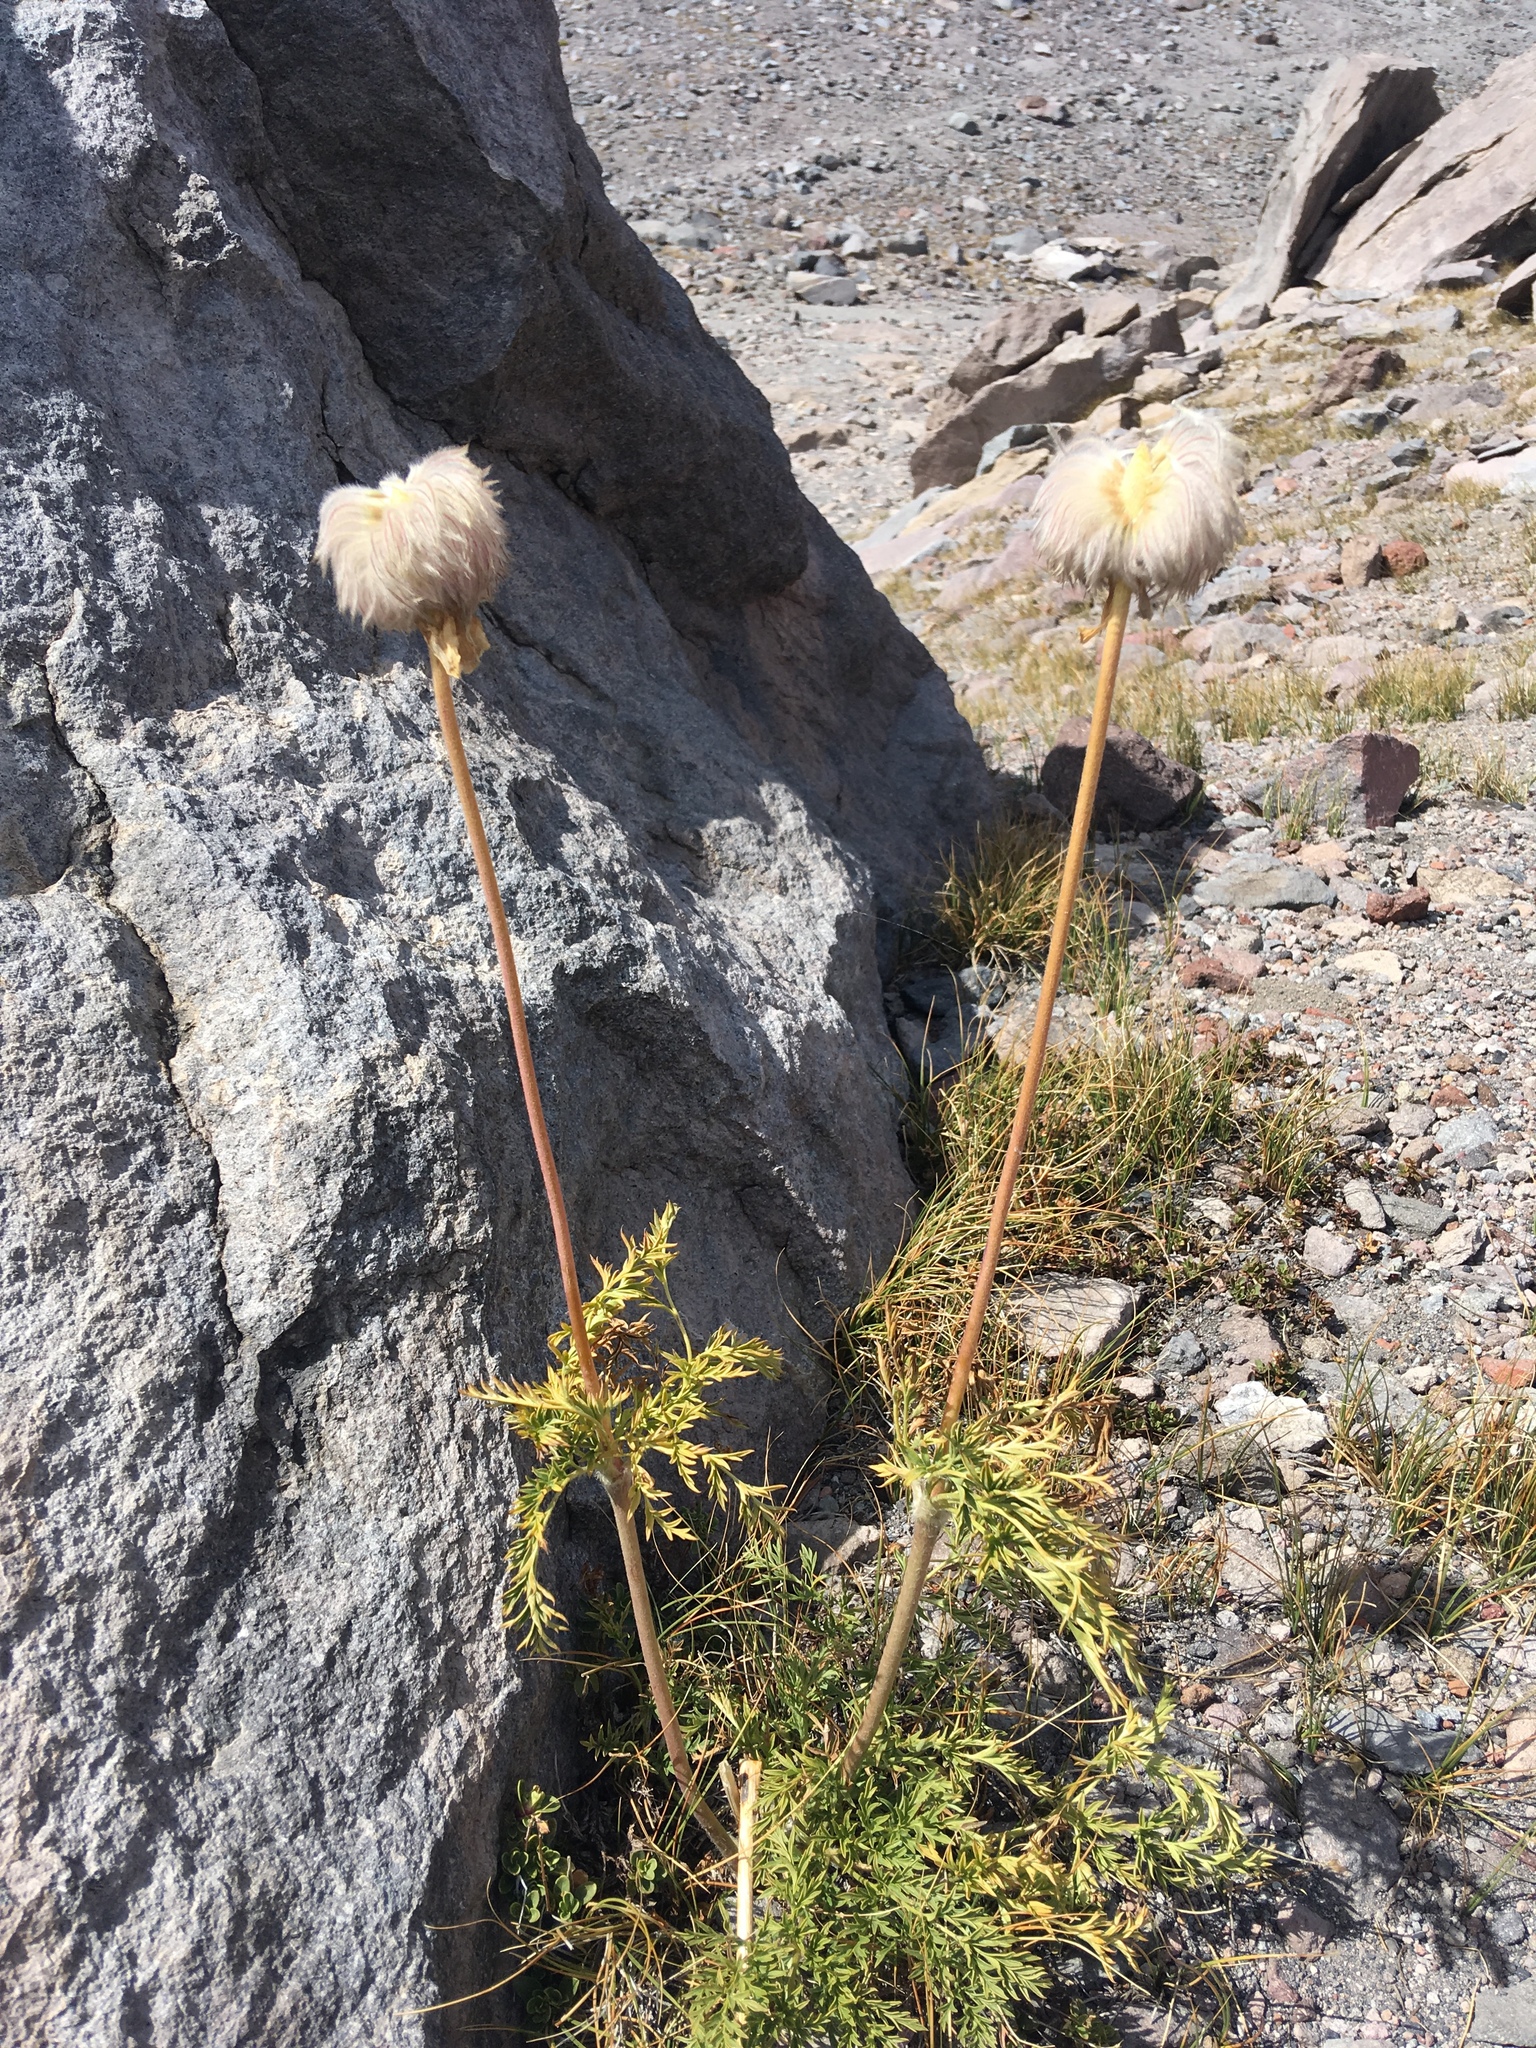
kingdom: Plantae
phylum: Tracheophyta
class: Magnoliopsida
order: Ranunculales
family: Ranunculaceae
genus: Pulsatilla
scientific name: Pulsatilla occidentalis
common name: Mountain pasqueflower
